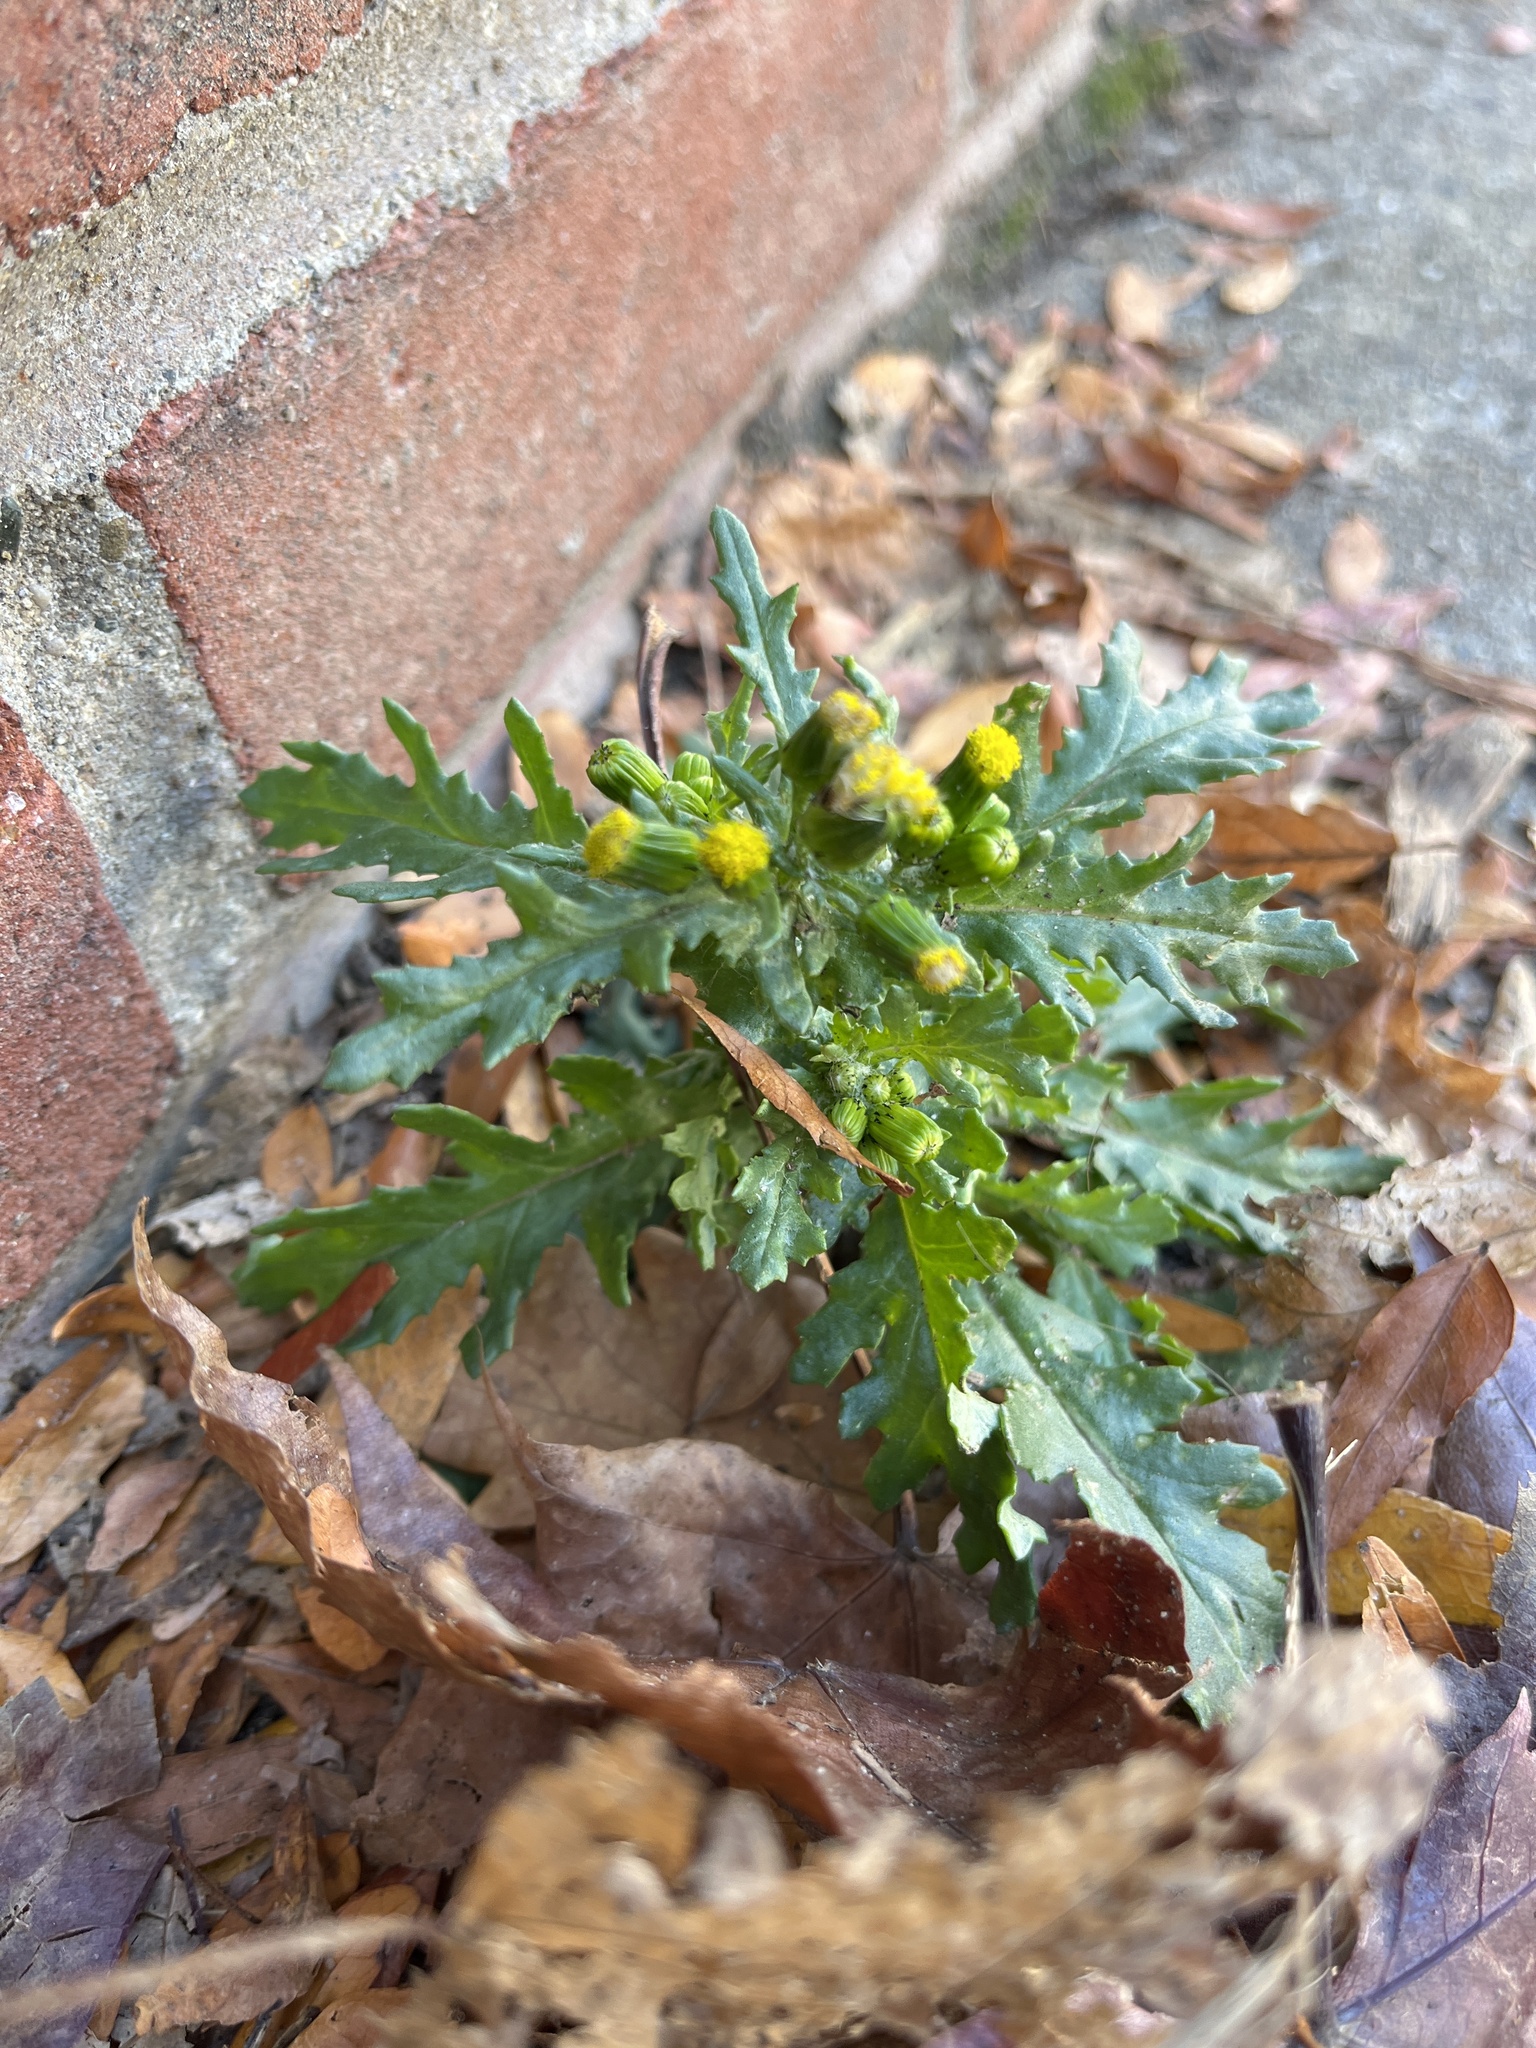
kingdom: Plantae
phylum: Tracheophyta
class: Magnoliopsida
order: Asterales
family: Asteraceae
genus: Senecio
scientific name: Senecio vulgaris
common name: Old-man-in-the-spring
